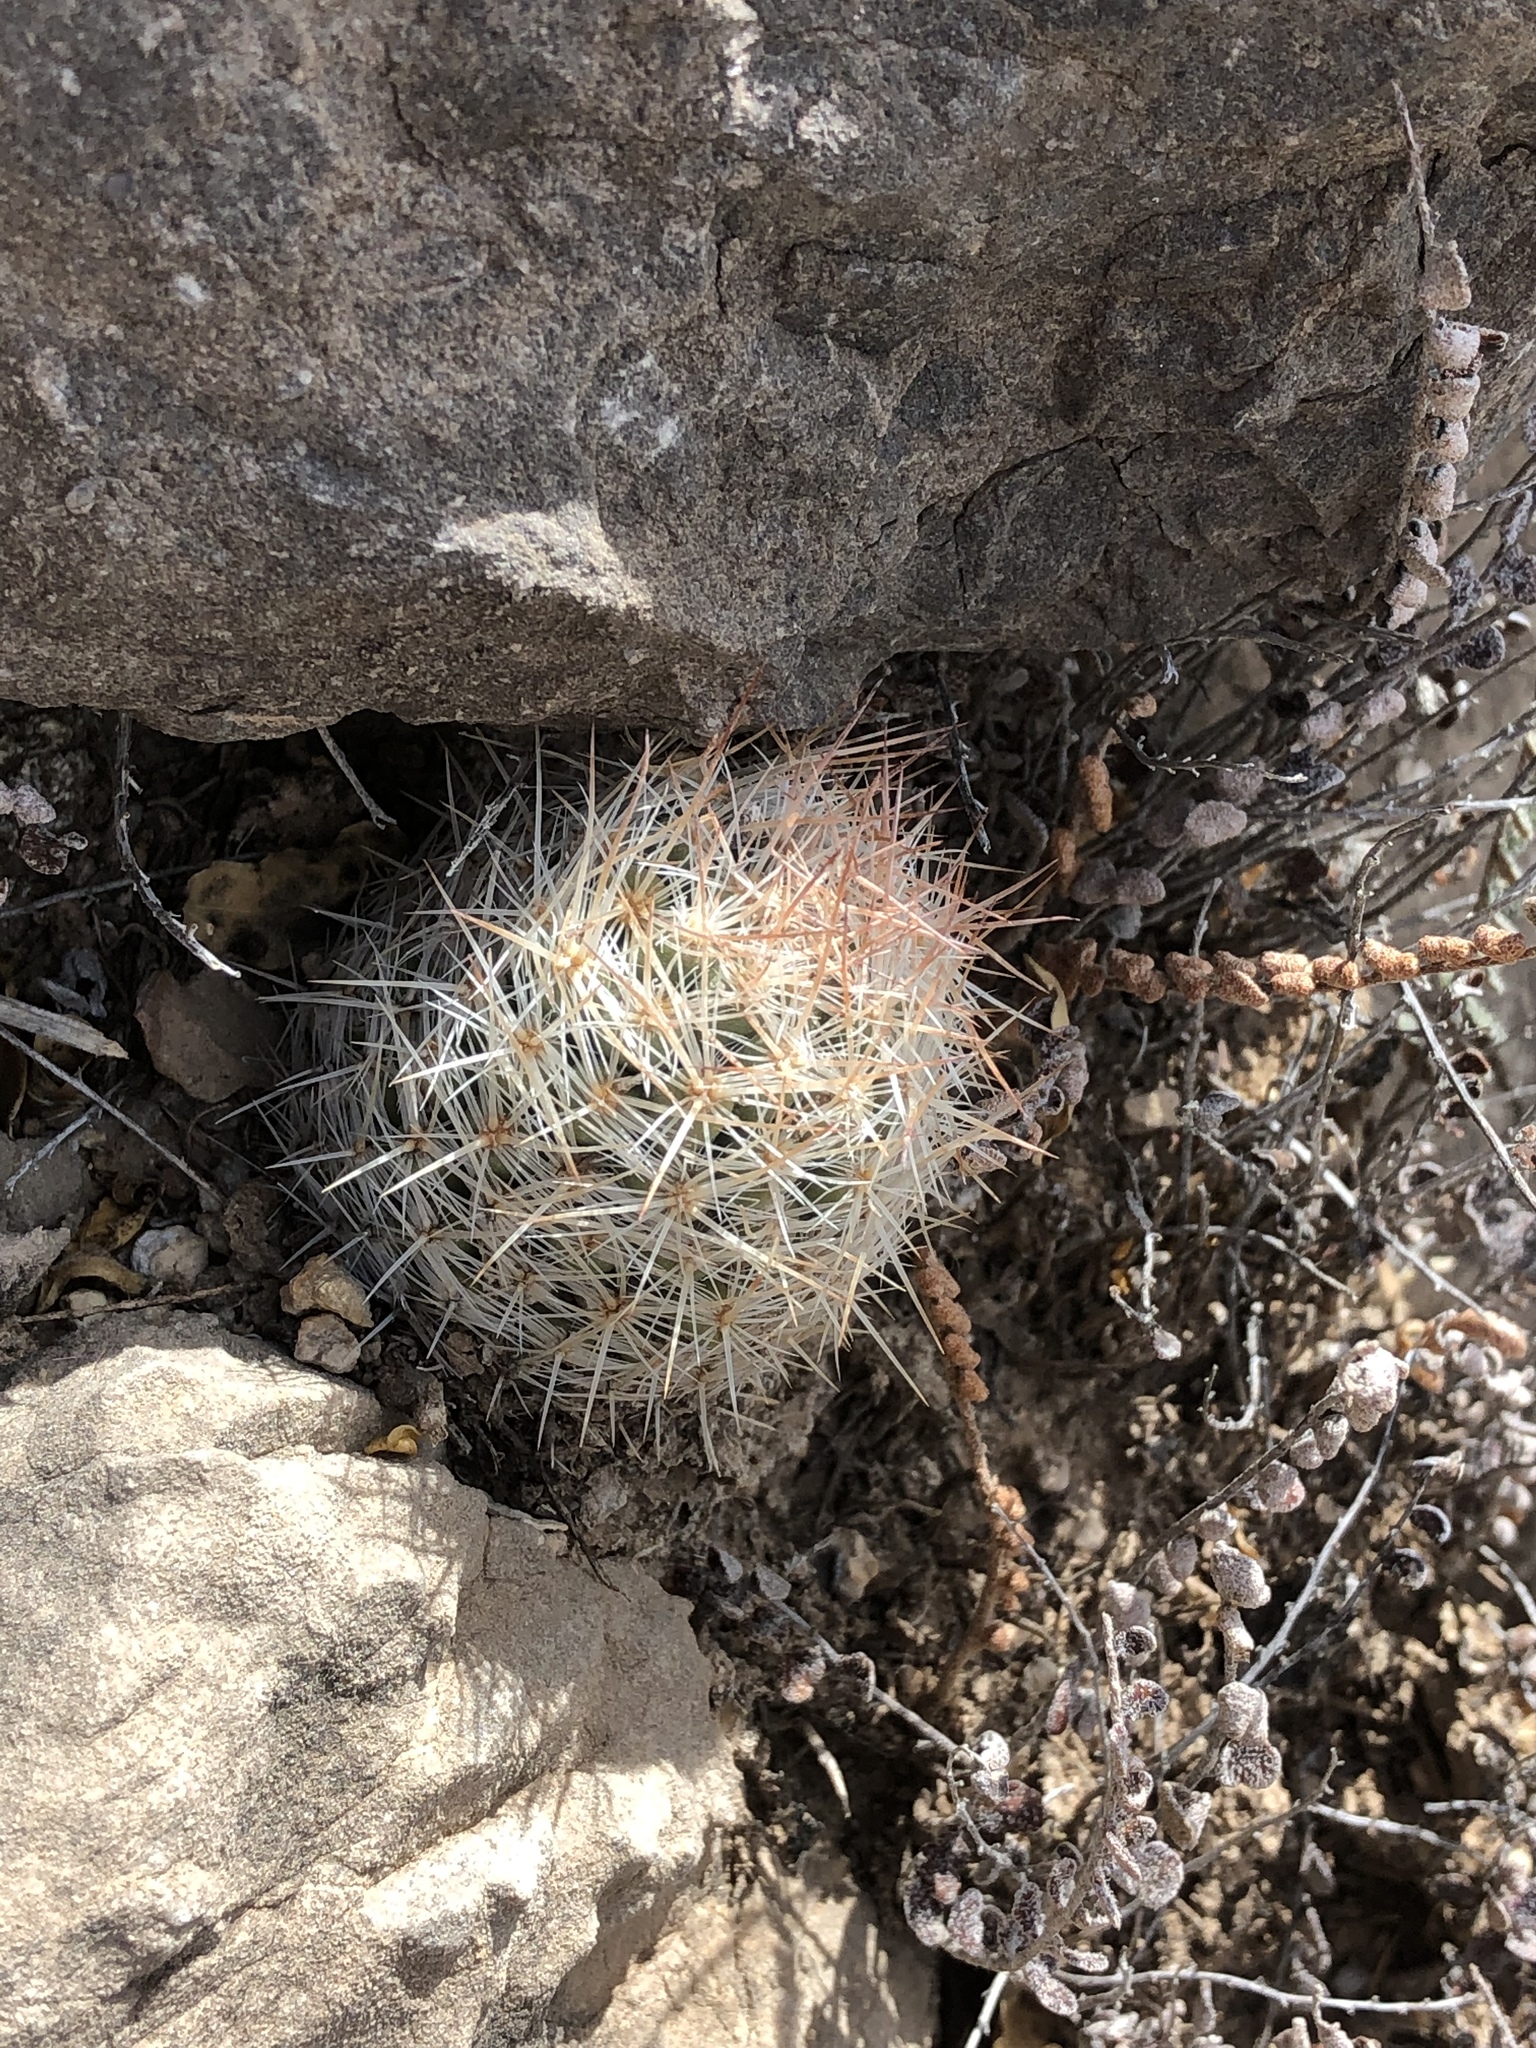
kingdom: Plantae
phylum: Tracheophyta
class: Magnoliopsida
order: Caryophyllales
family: Cactaceae
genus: Pelecyphora
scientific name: Pelecyphora tuberculosa
